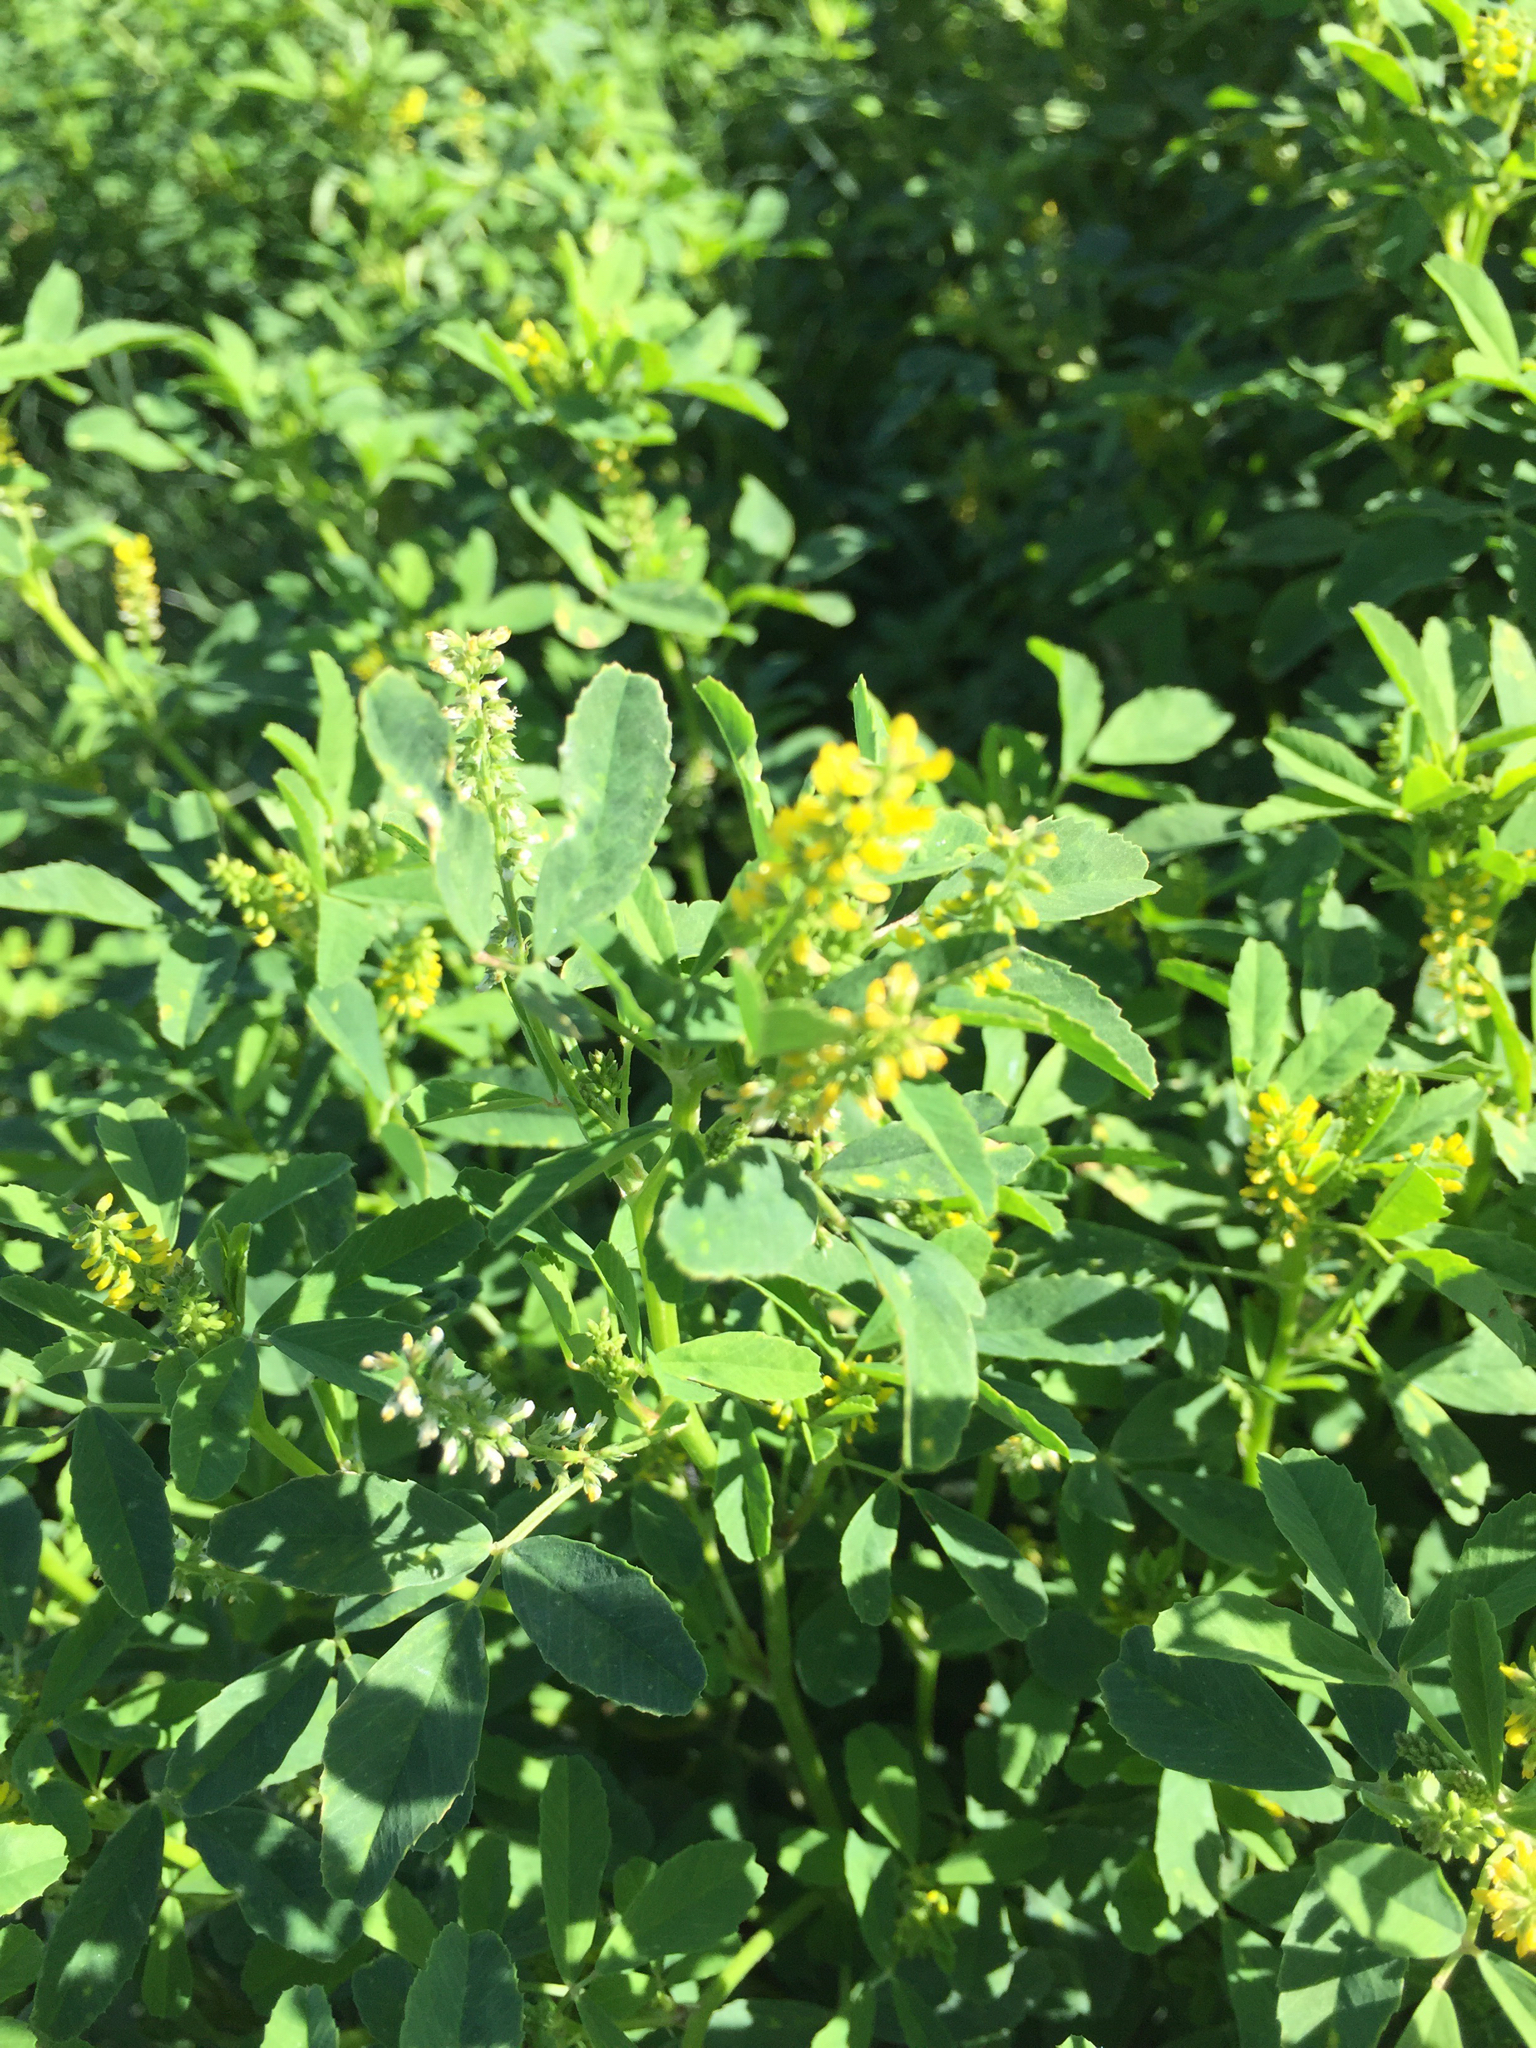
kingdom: Plantae
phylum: Tracheophyta
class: Magnoliopsida
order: Fabales
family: Fabaceae
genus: Melilotus
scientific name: Melilotus indicus
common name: Small melilot
